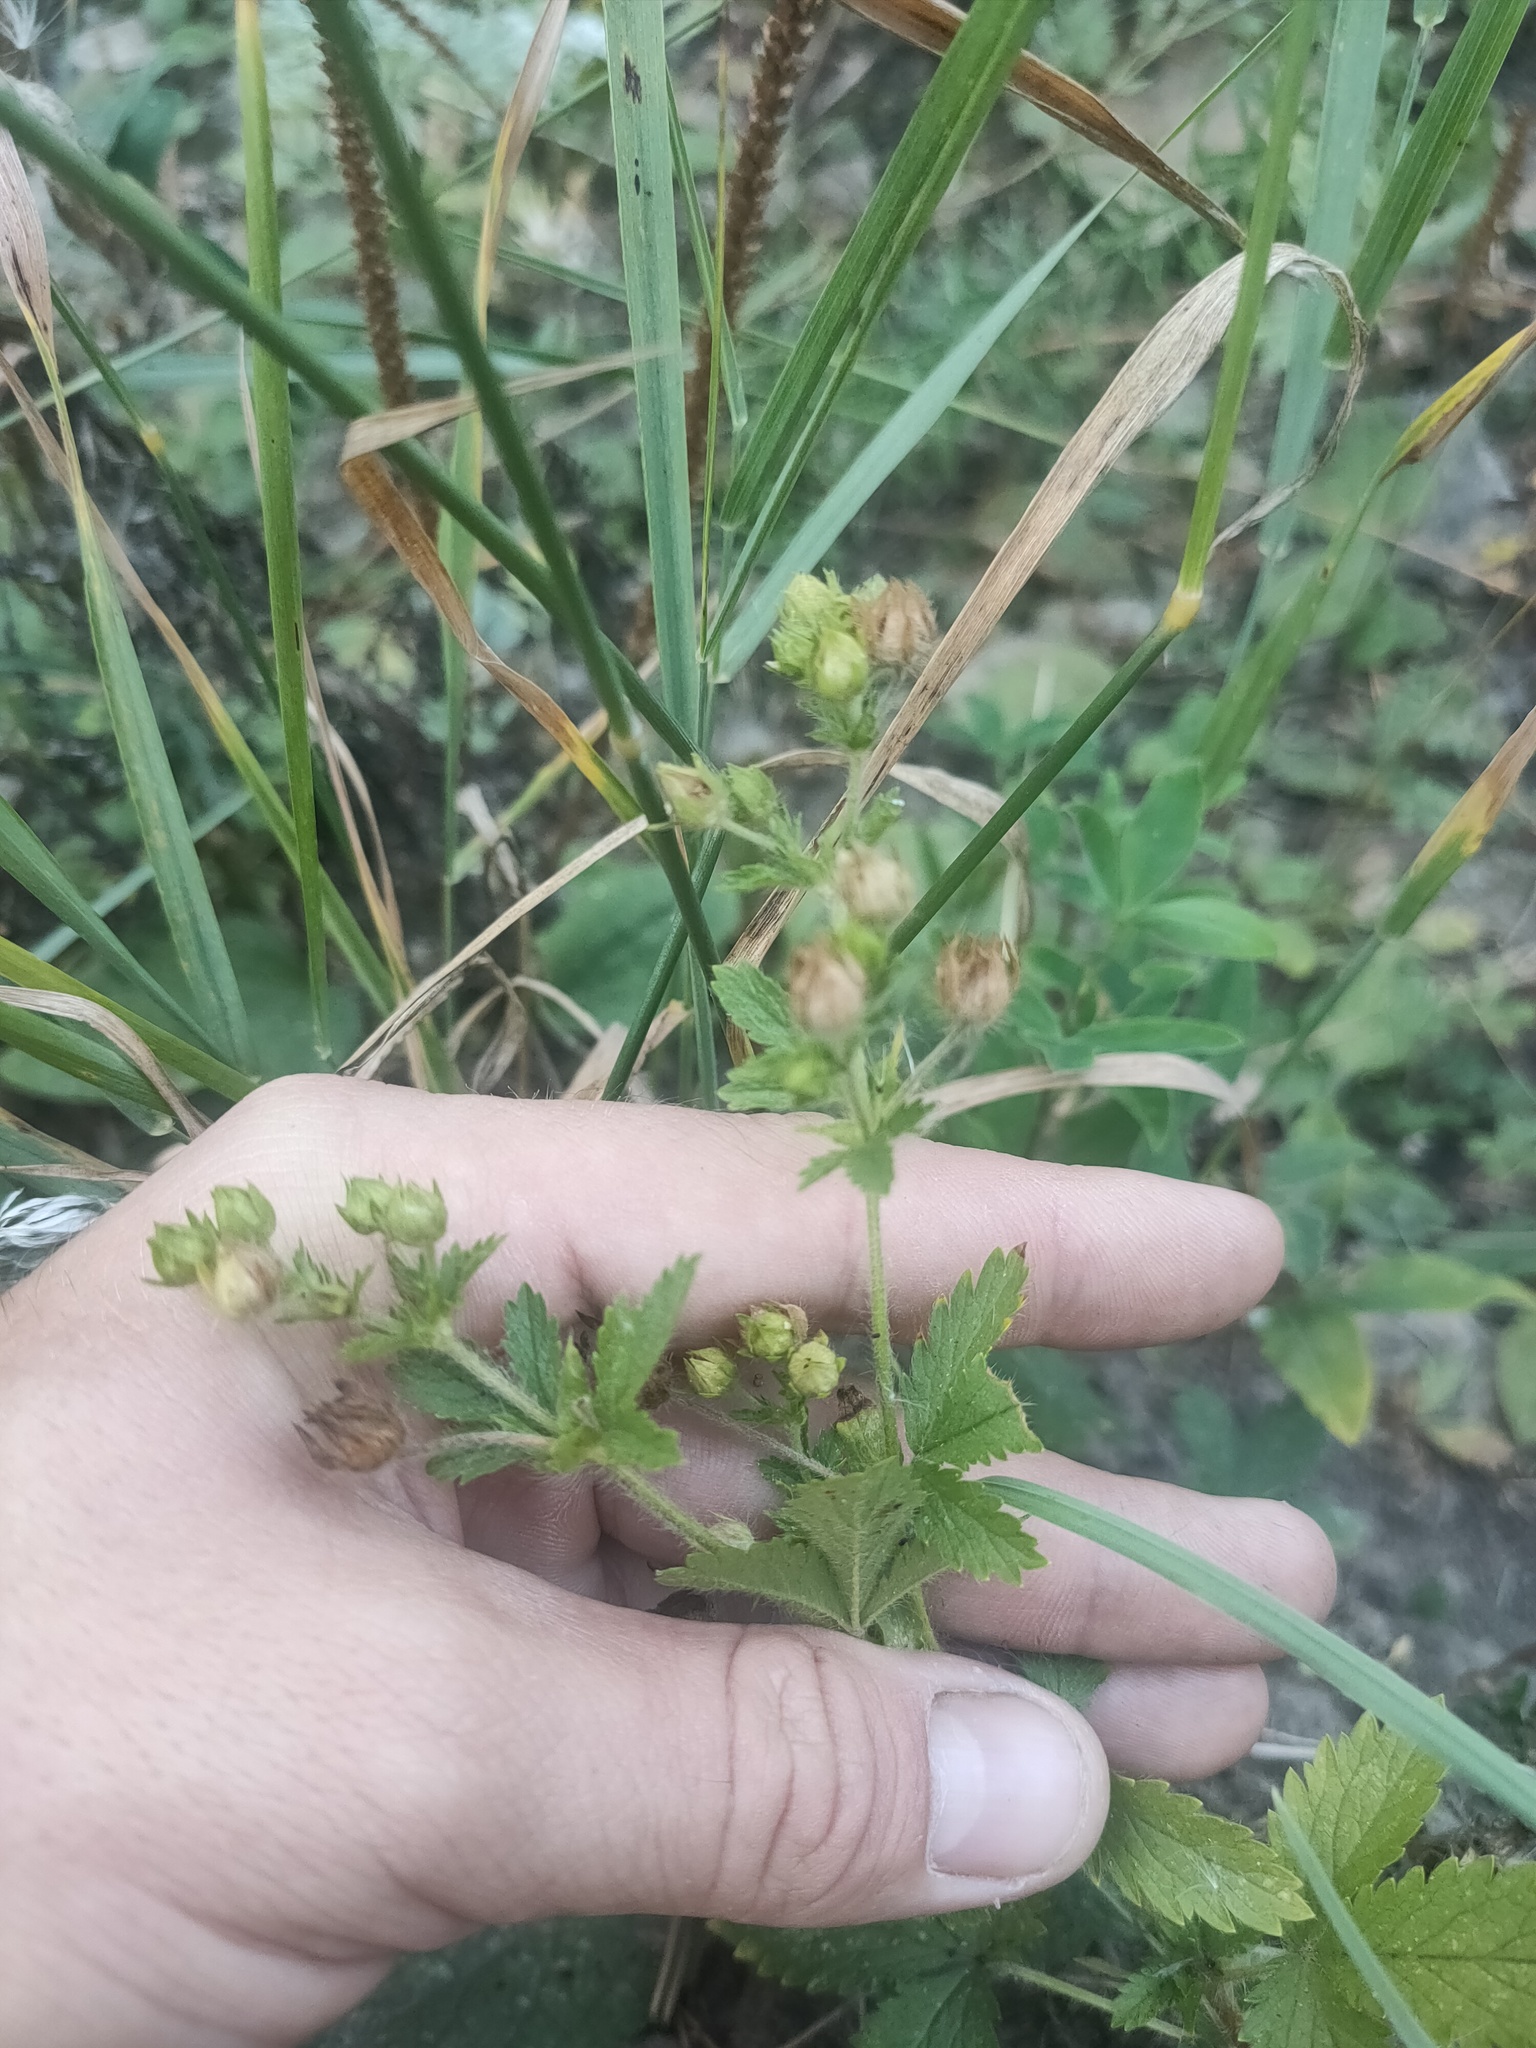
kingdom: Plantae
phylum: Tracheophyta
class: Magnoliopsida
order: Rosales
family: Rosaceae
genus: Potentilla
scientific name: Potentilla norvegica
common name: Ternate-leaved cinquefoil
